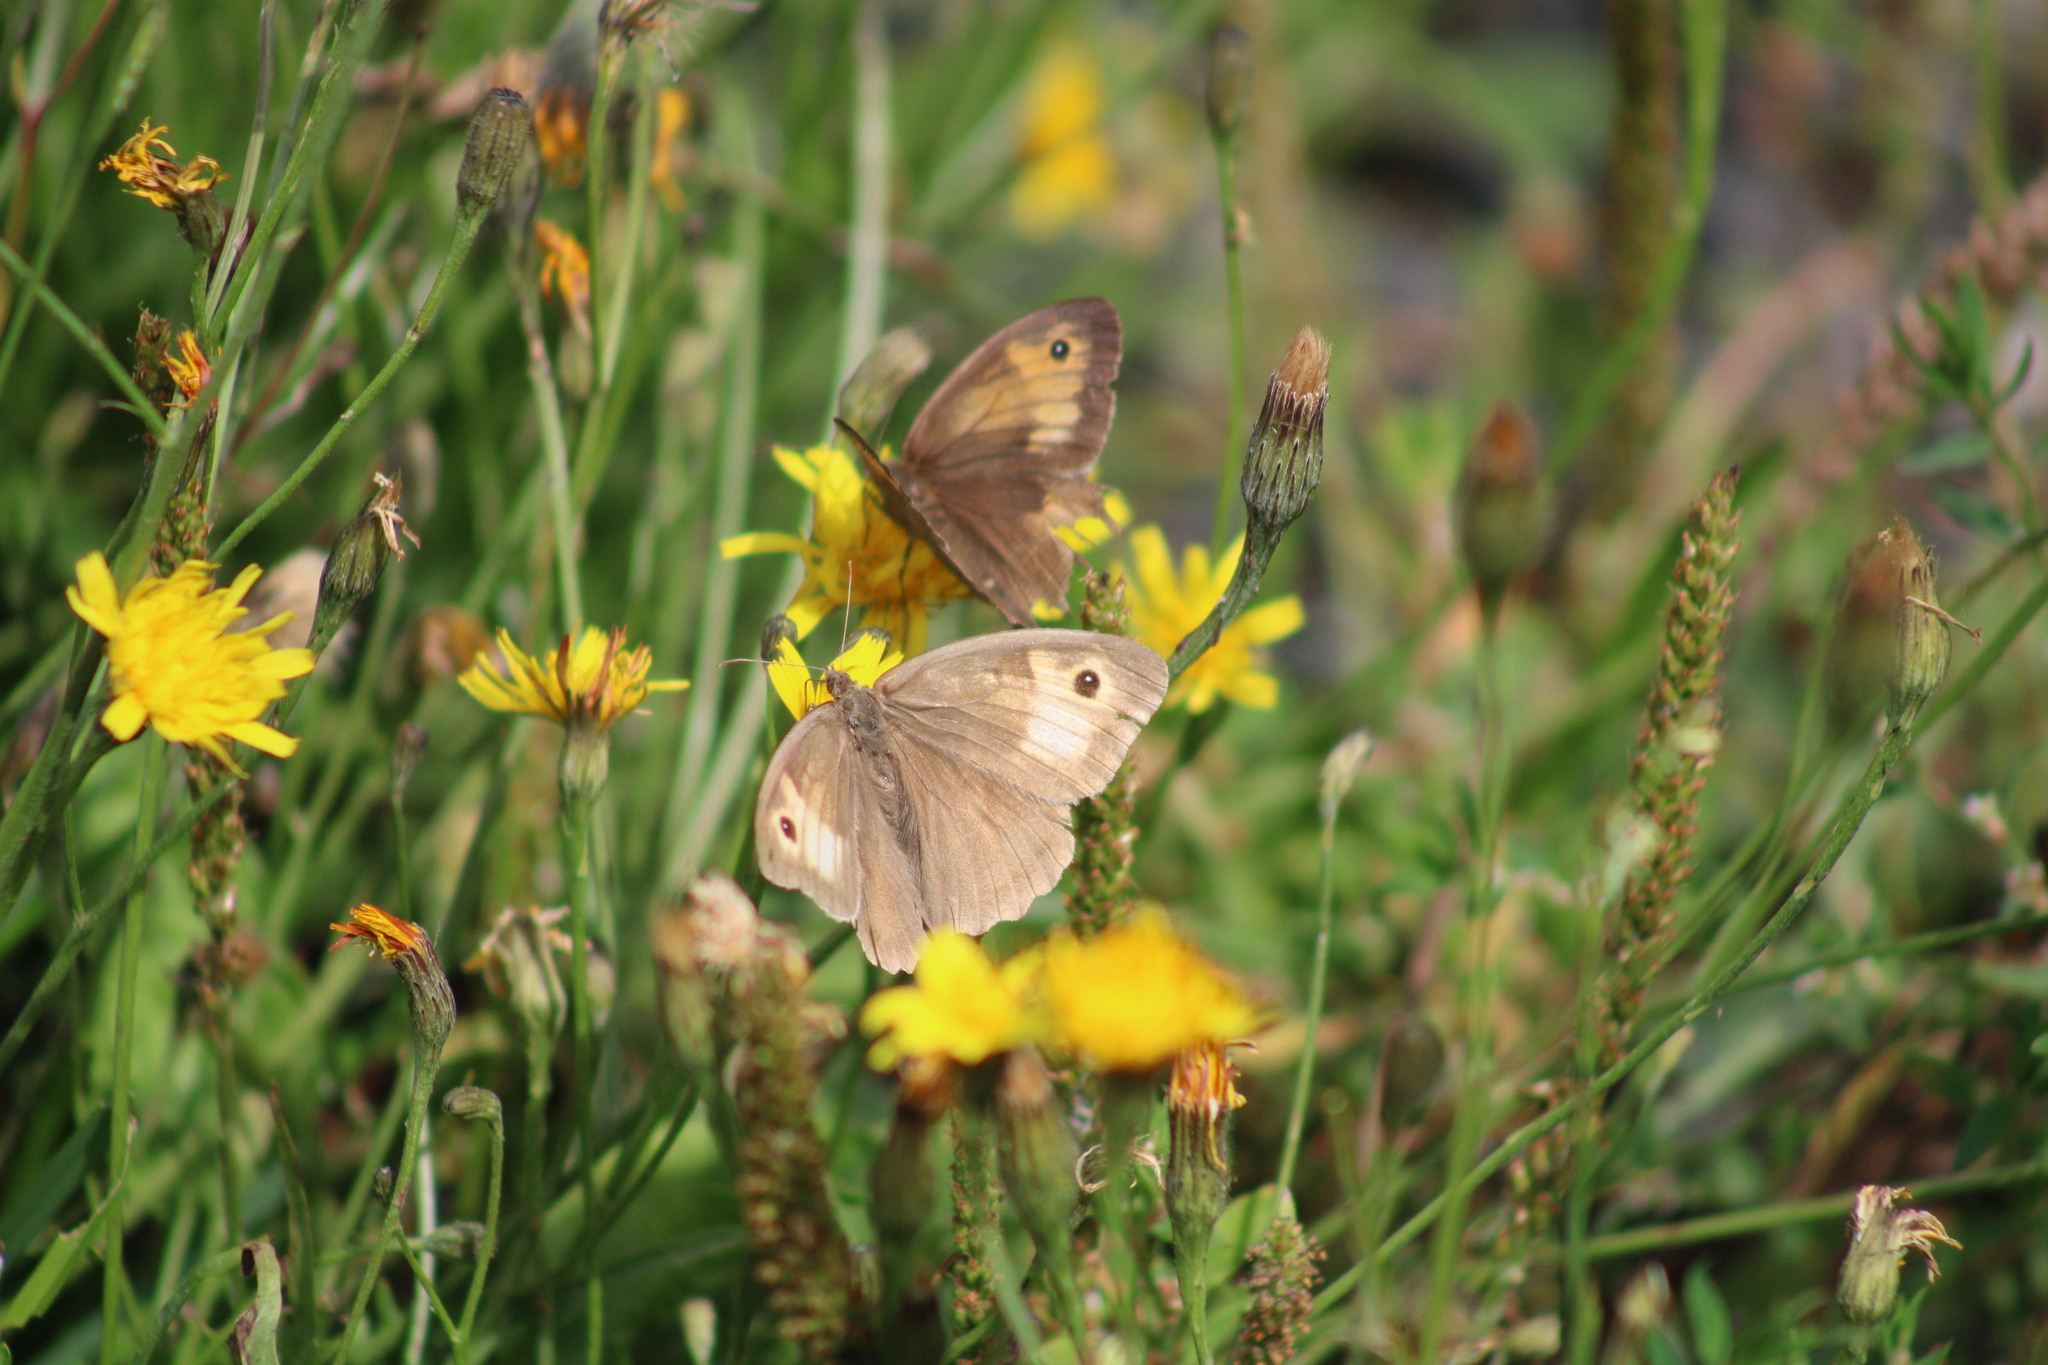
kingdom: Animalia
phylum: Arthropoda
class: Insecta
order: Lepidoptera
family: Nymphalidae
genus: Maniola
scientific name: Maniola jurtina
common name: Meadow brown
